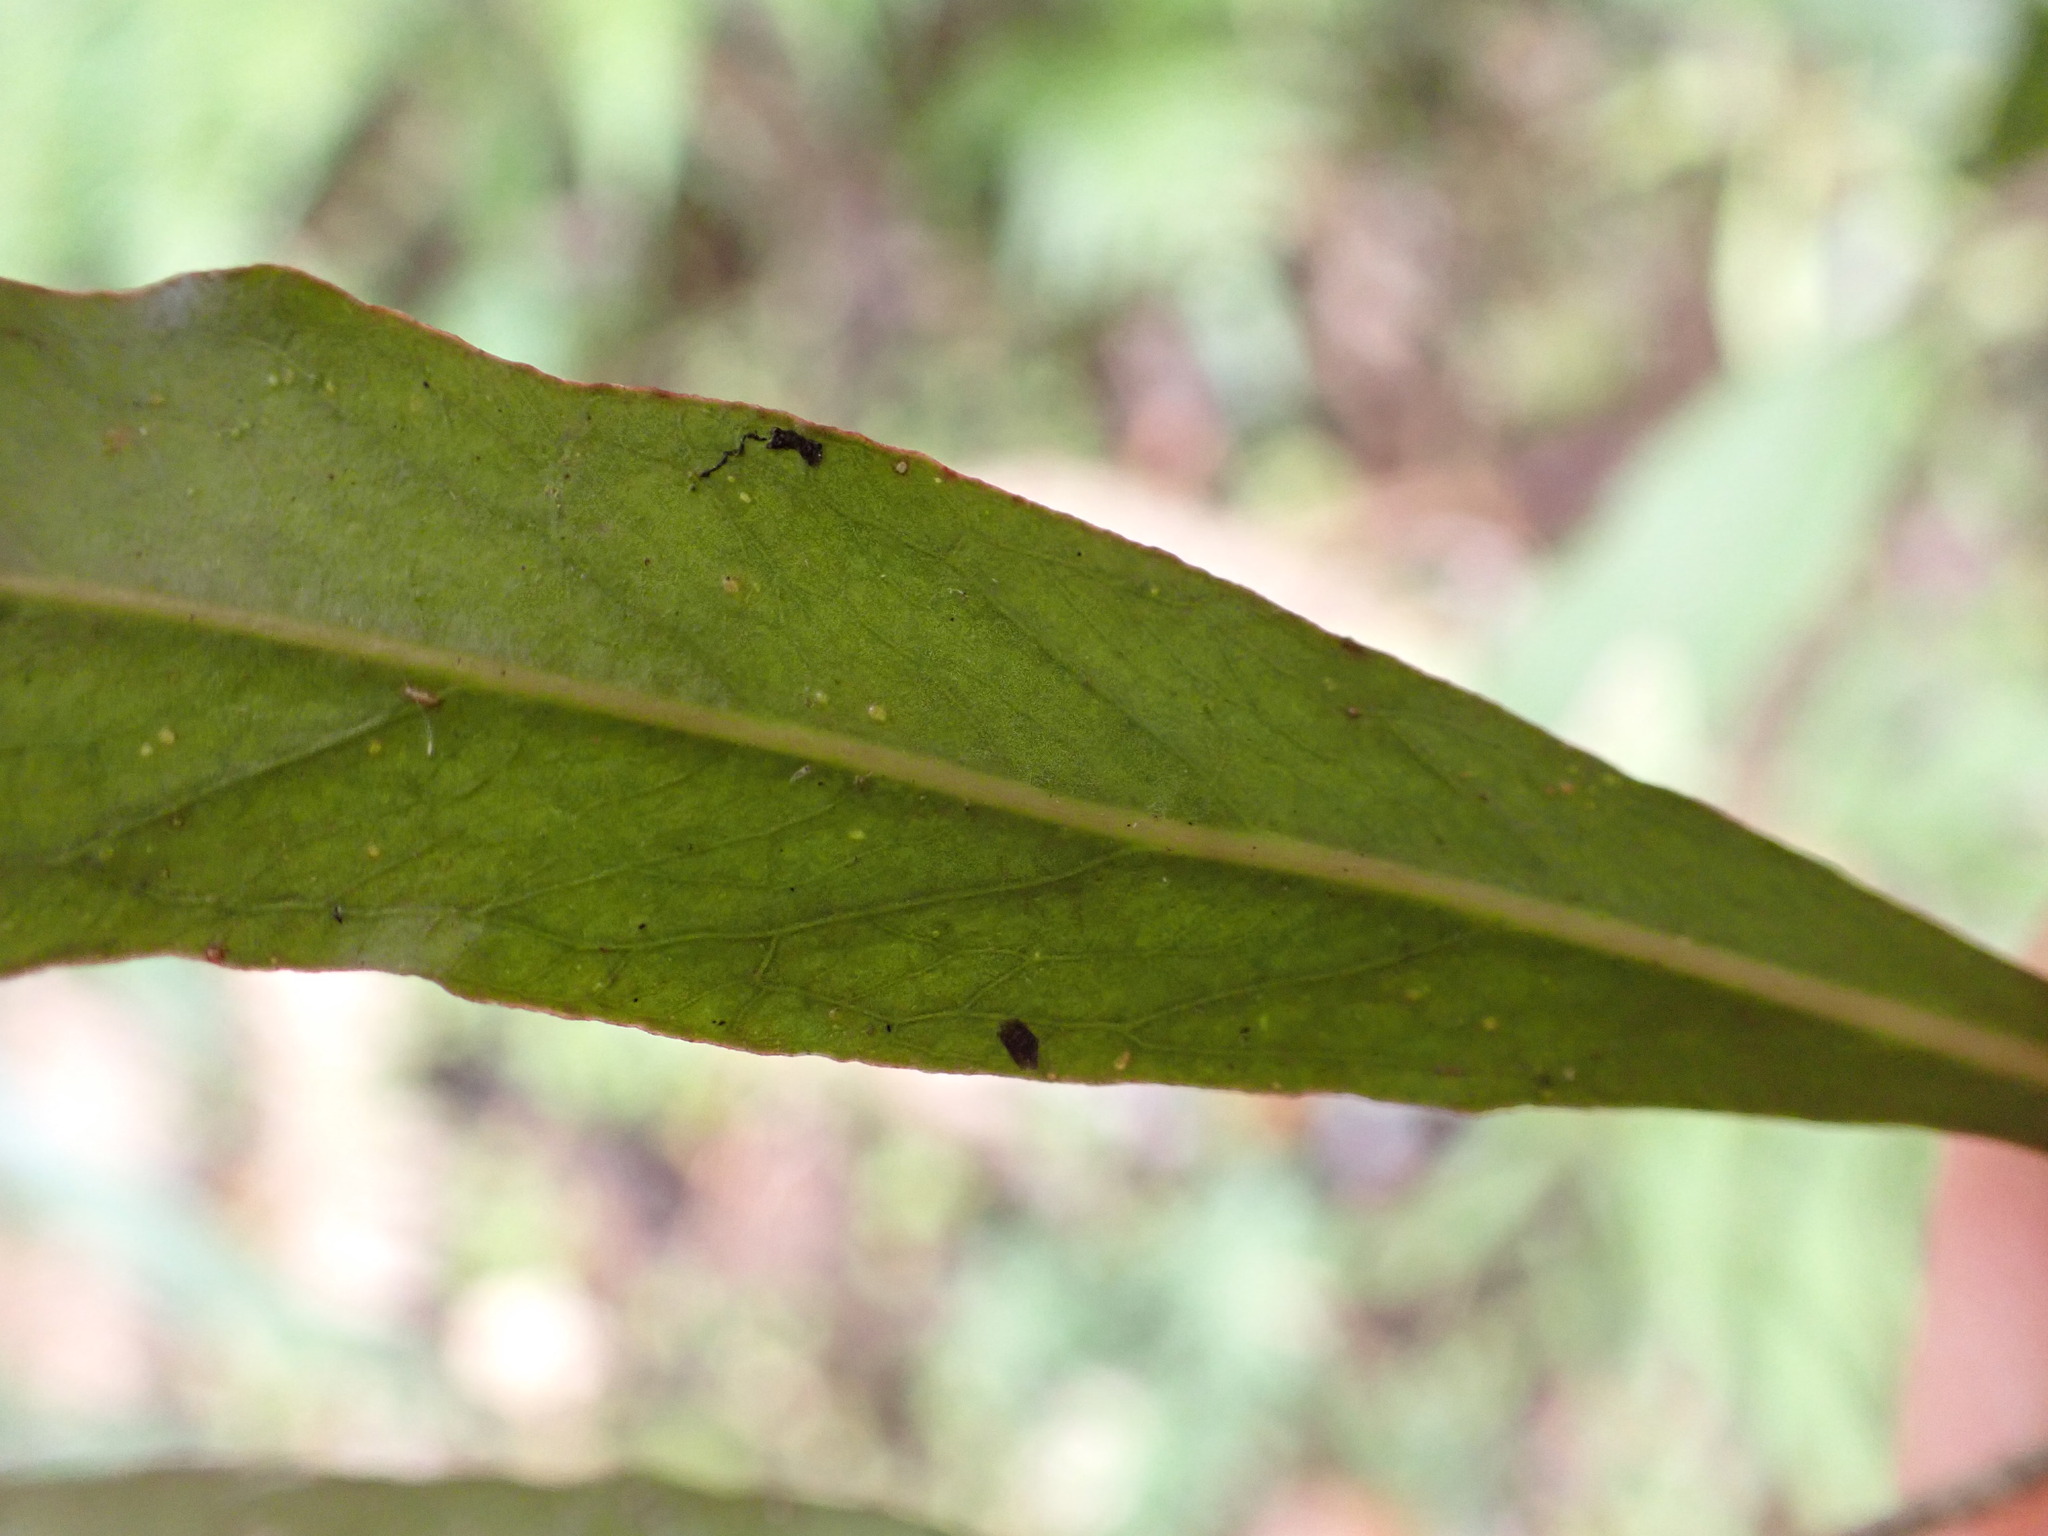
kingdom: Plantae
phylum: Tracheophyta
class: Magnoliopsida
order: Santalales
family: Nanodeaceae
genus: Mida
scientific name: Mida salicifolia
